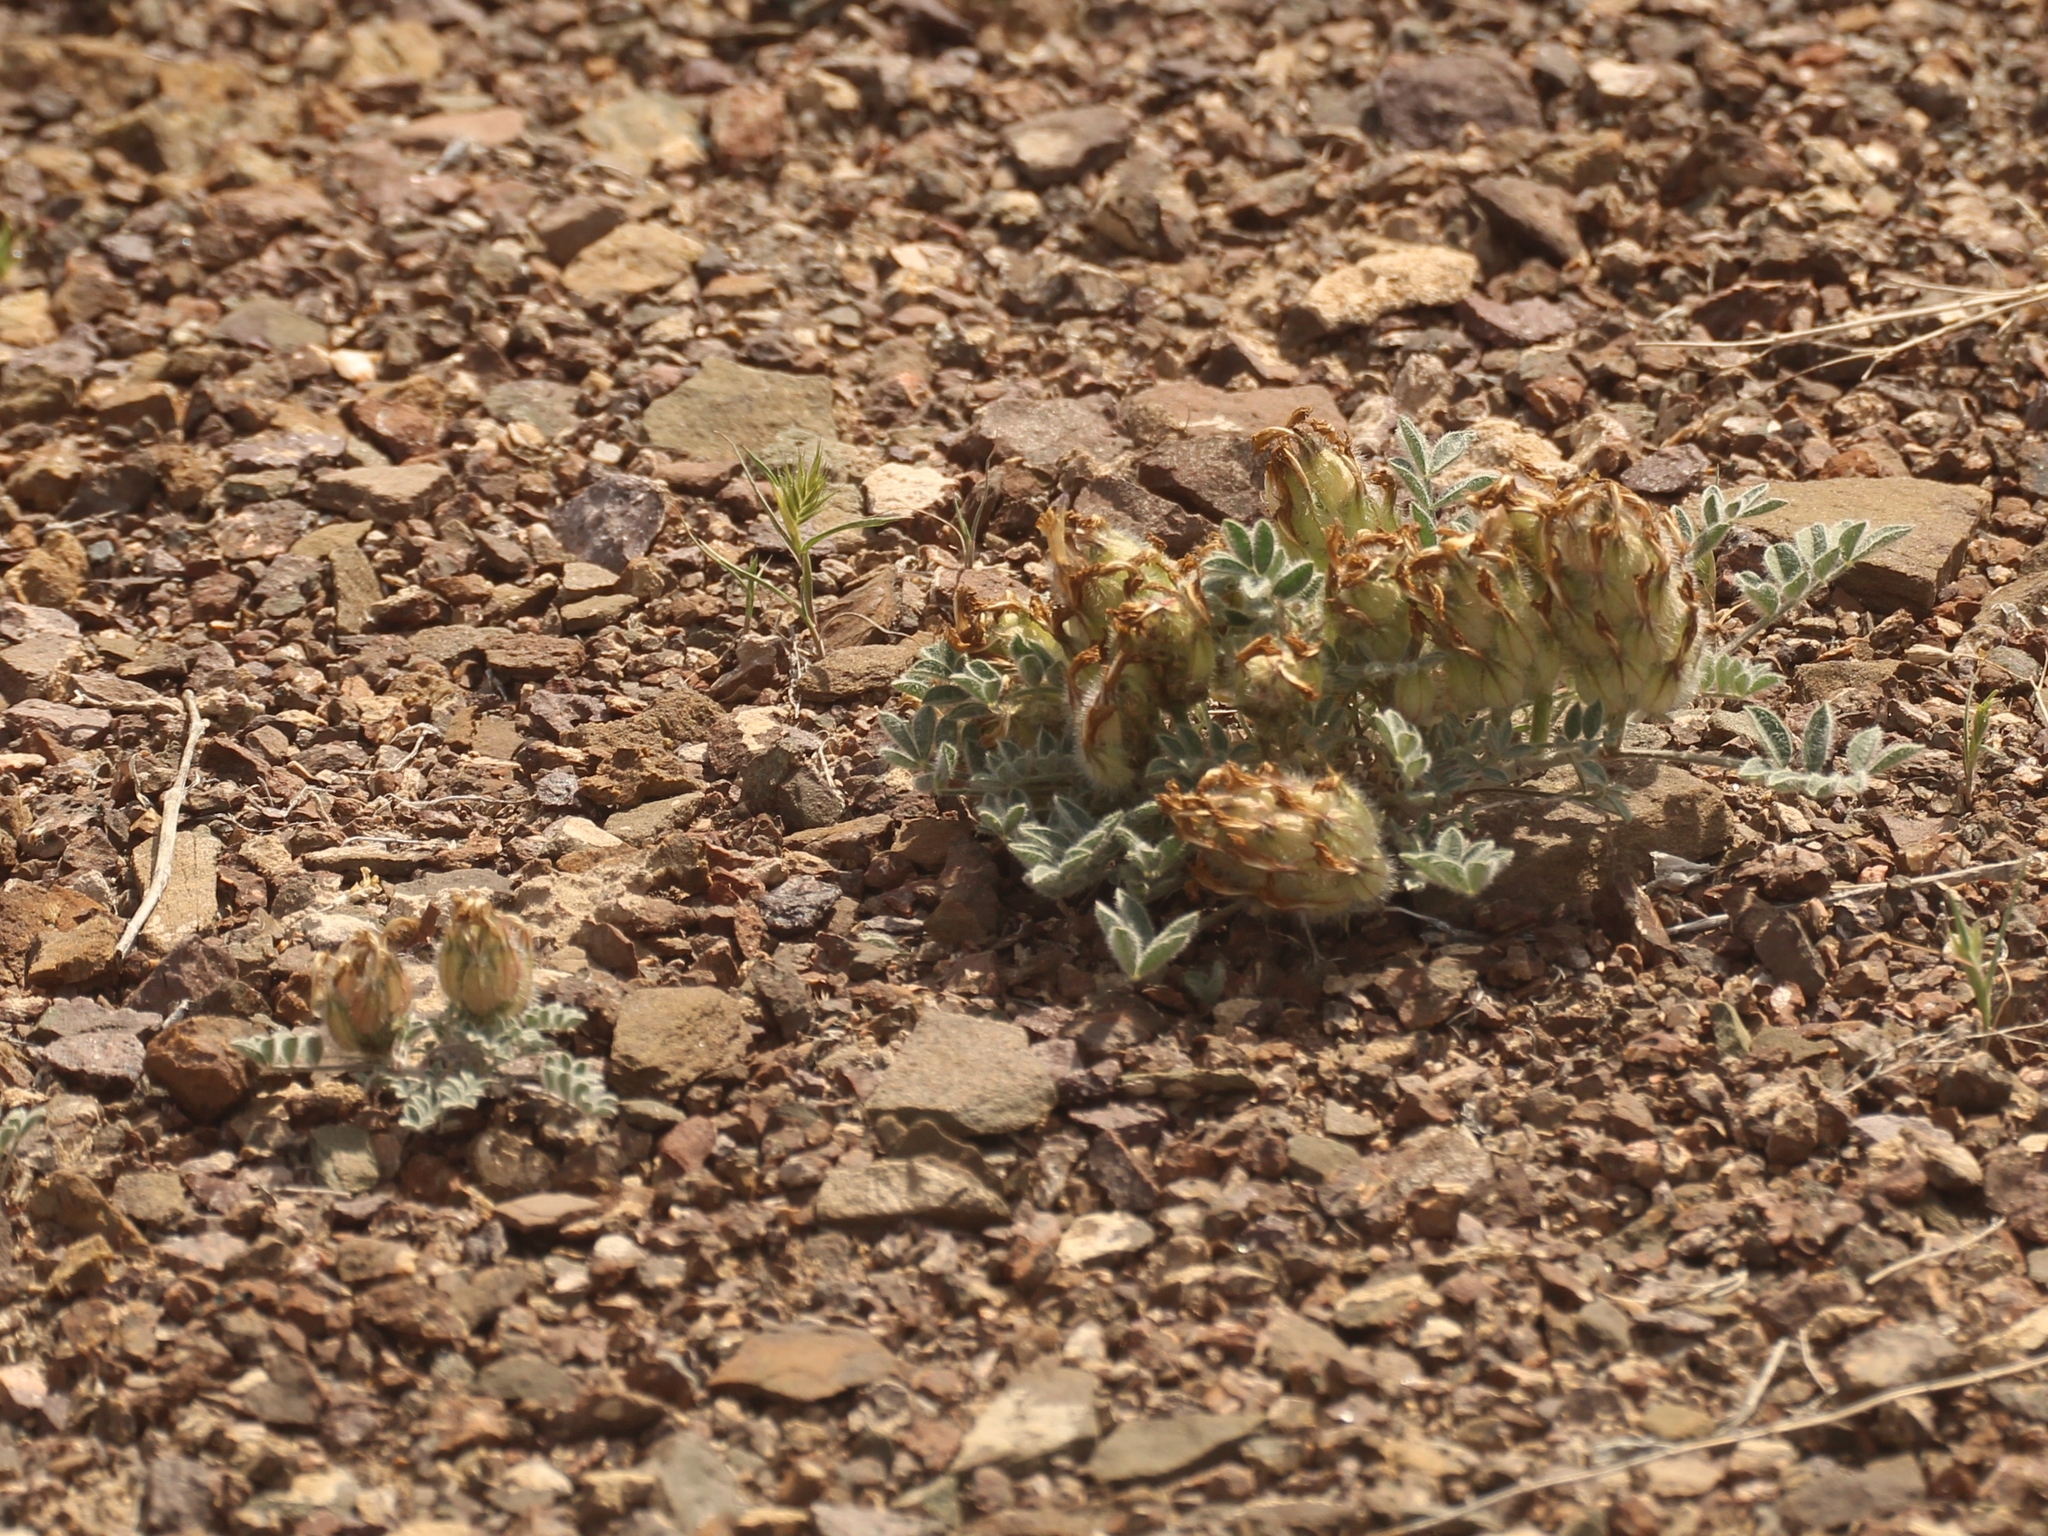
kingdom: Plantae
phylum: Tracheophyta
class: Magnoliopsida
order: Fabales
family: Fabaceae
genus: Astragalus
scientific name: Astragalus arkalycensis
